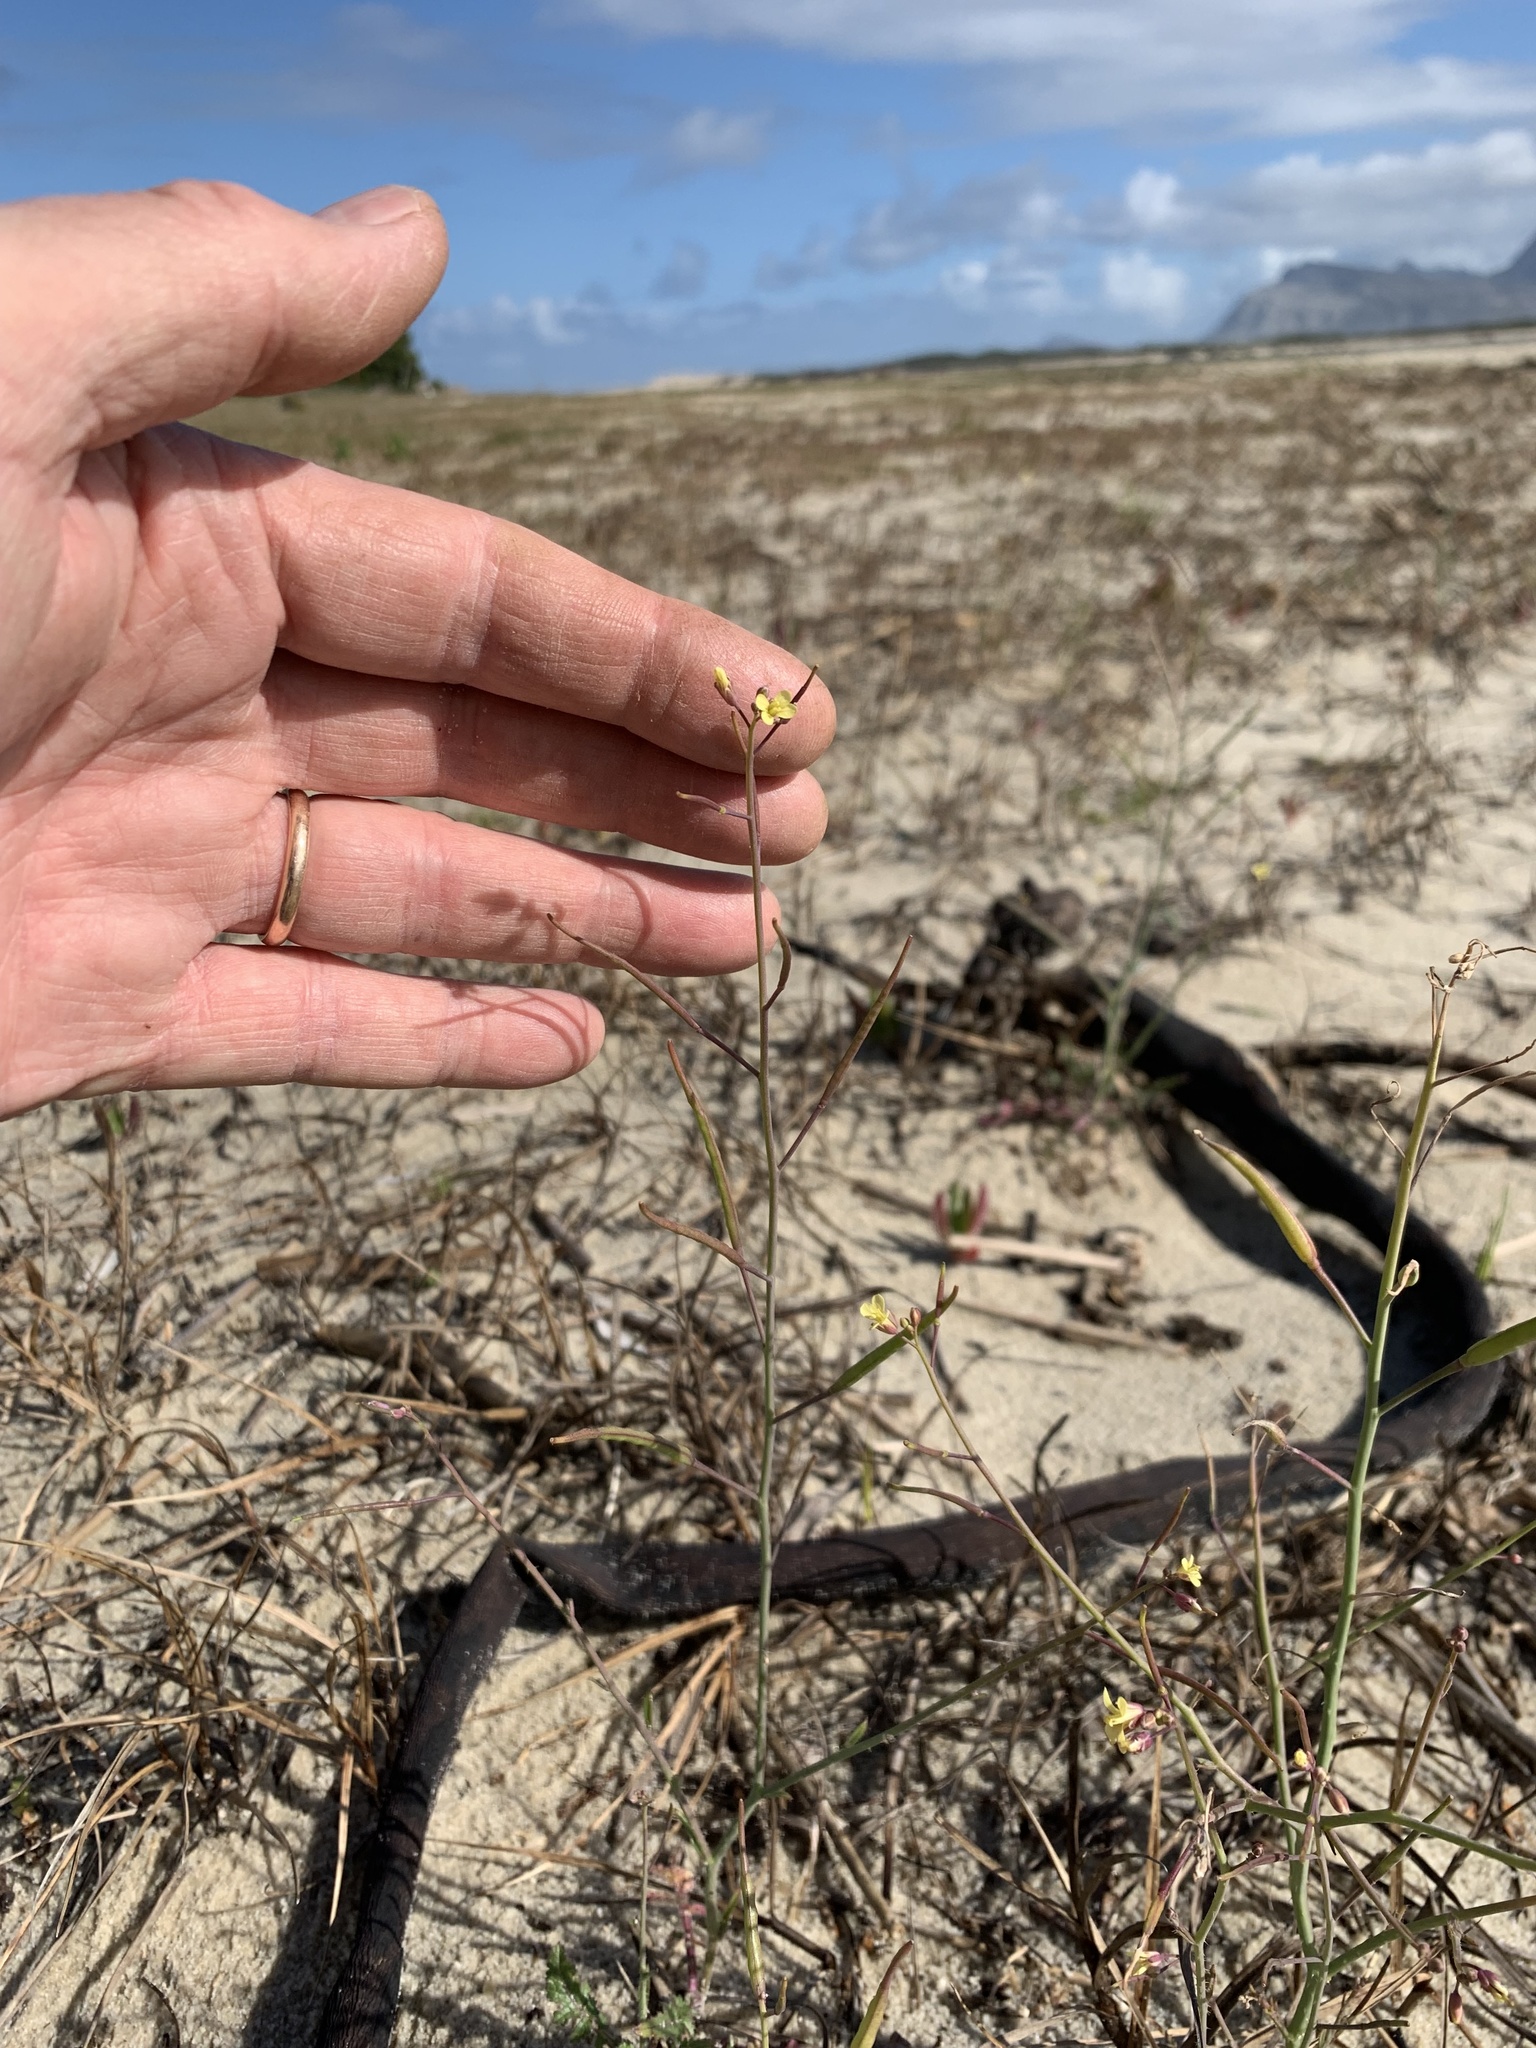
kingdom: Plantae
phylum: Tracheophyta
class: Magnoliopsida
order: Brassicales
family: Brassicaceae
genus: Brassica
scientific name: Brassica tournefortii
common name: Pale cabbage
